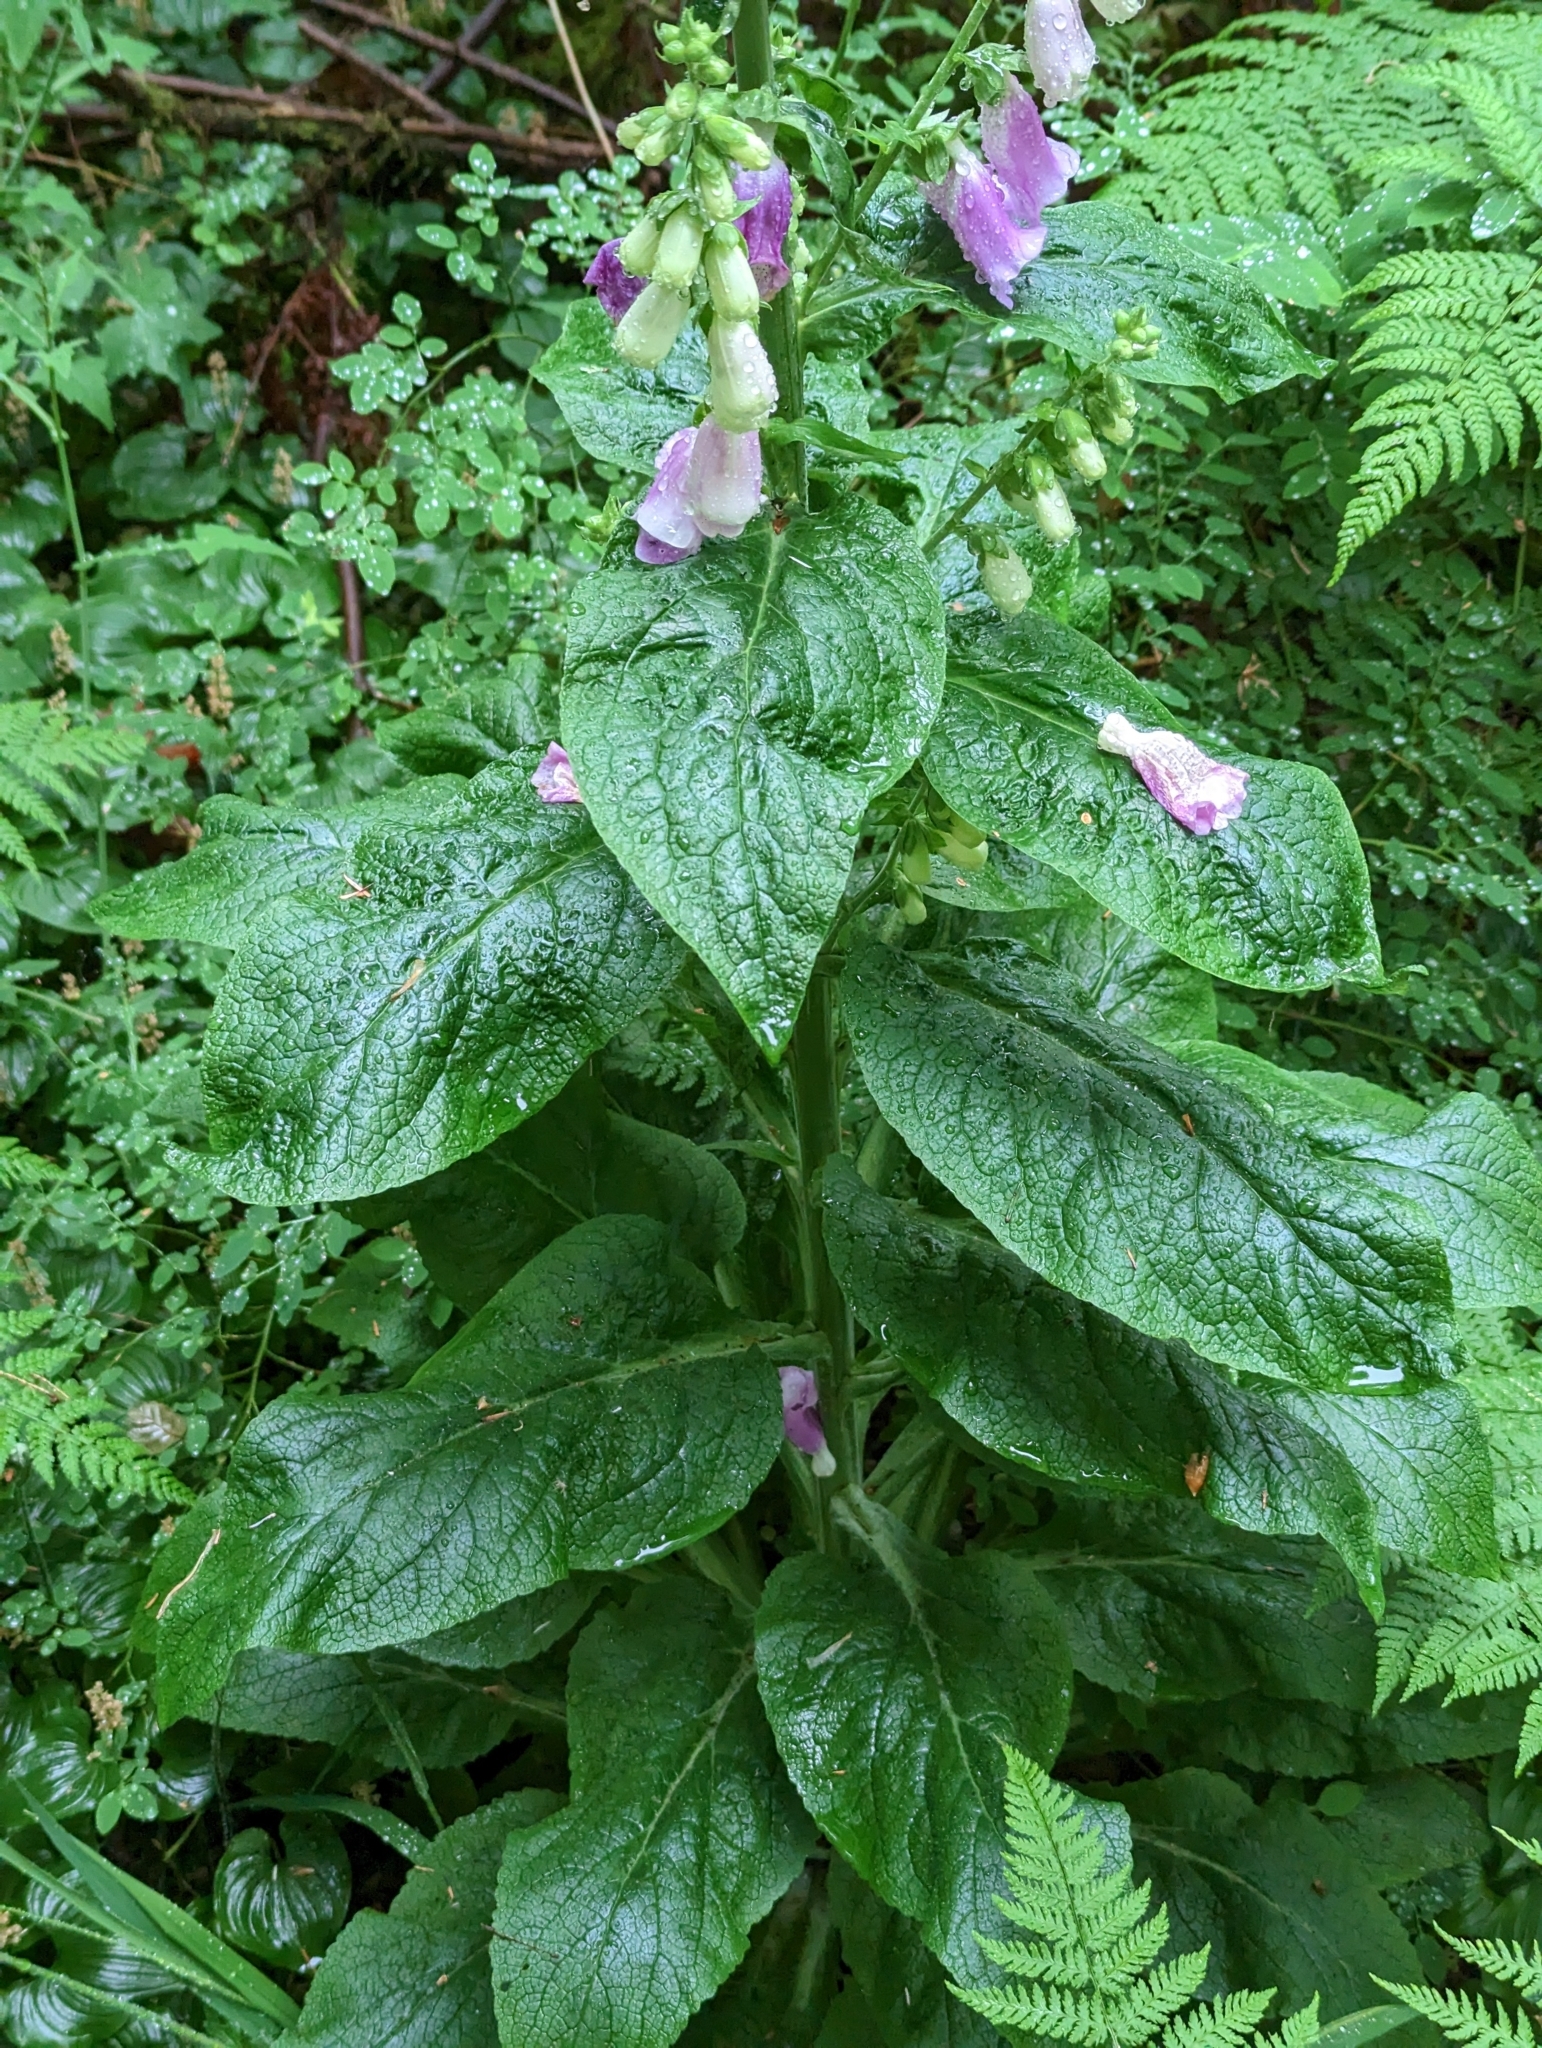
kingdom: Plantae
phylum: Tracheophyta
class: Magnoliopsida
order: Lamiales
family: Plantaginaceae
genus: Digitalis
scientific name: Digitalis purpurea
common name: Foxglove
